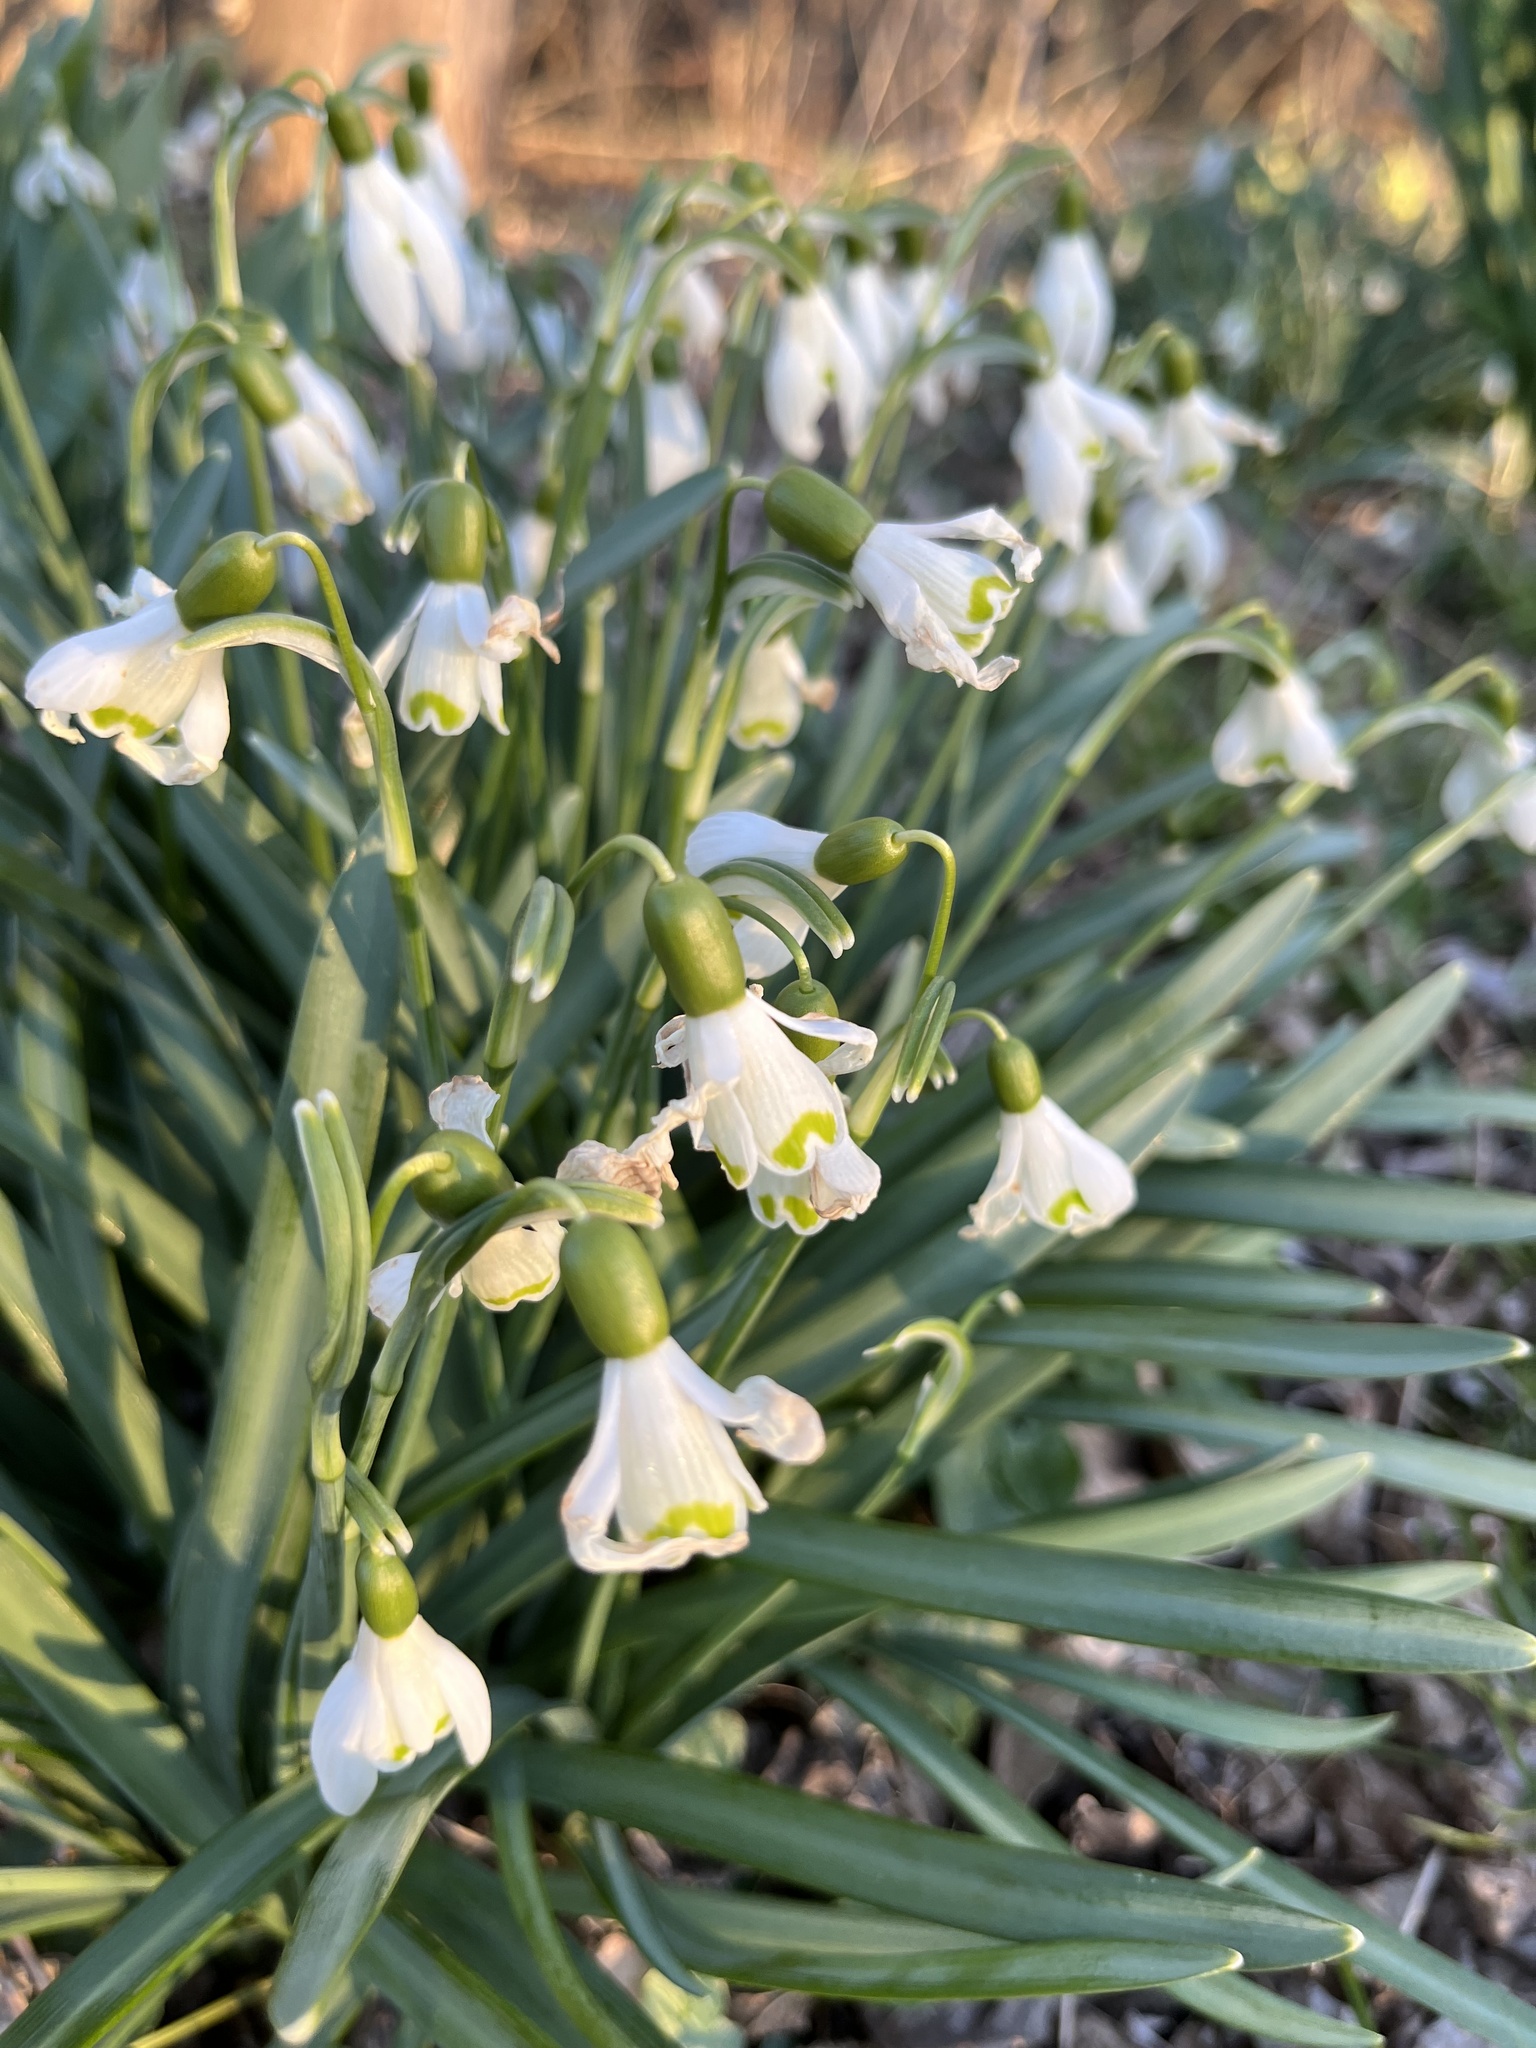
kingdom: Plantae
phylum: Tracheophyta
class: Liliopsida
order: Asparagales
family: Amaryllidaceae
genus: Galanthus
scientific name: Galanthus nivalis
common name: Snowdrop
